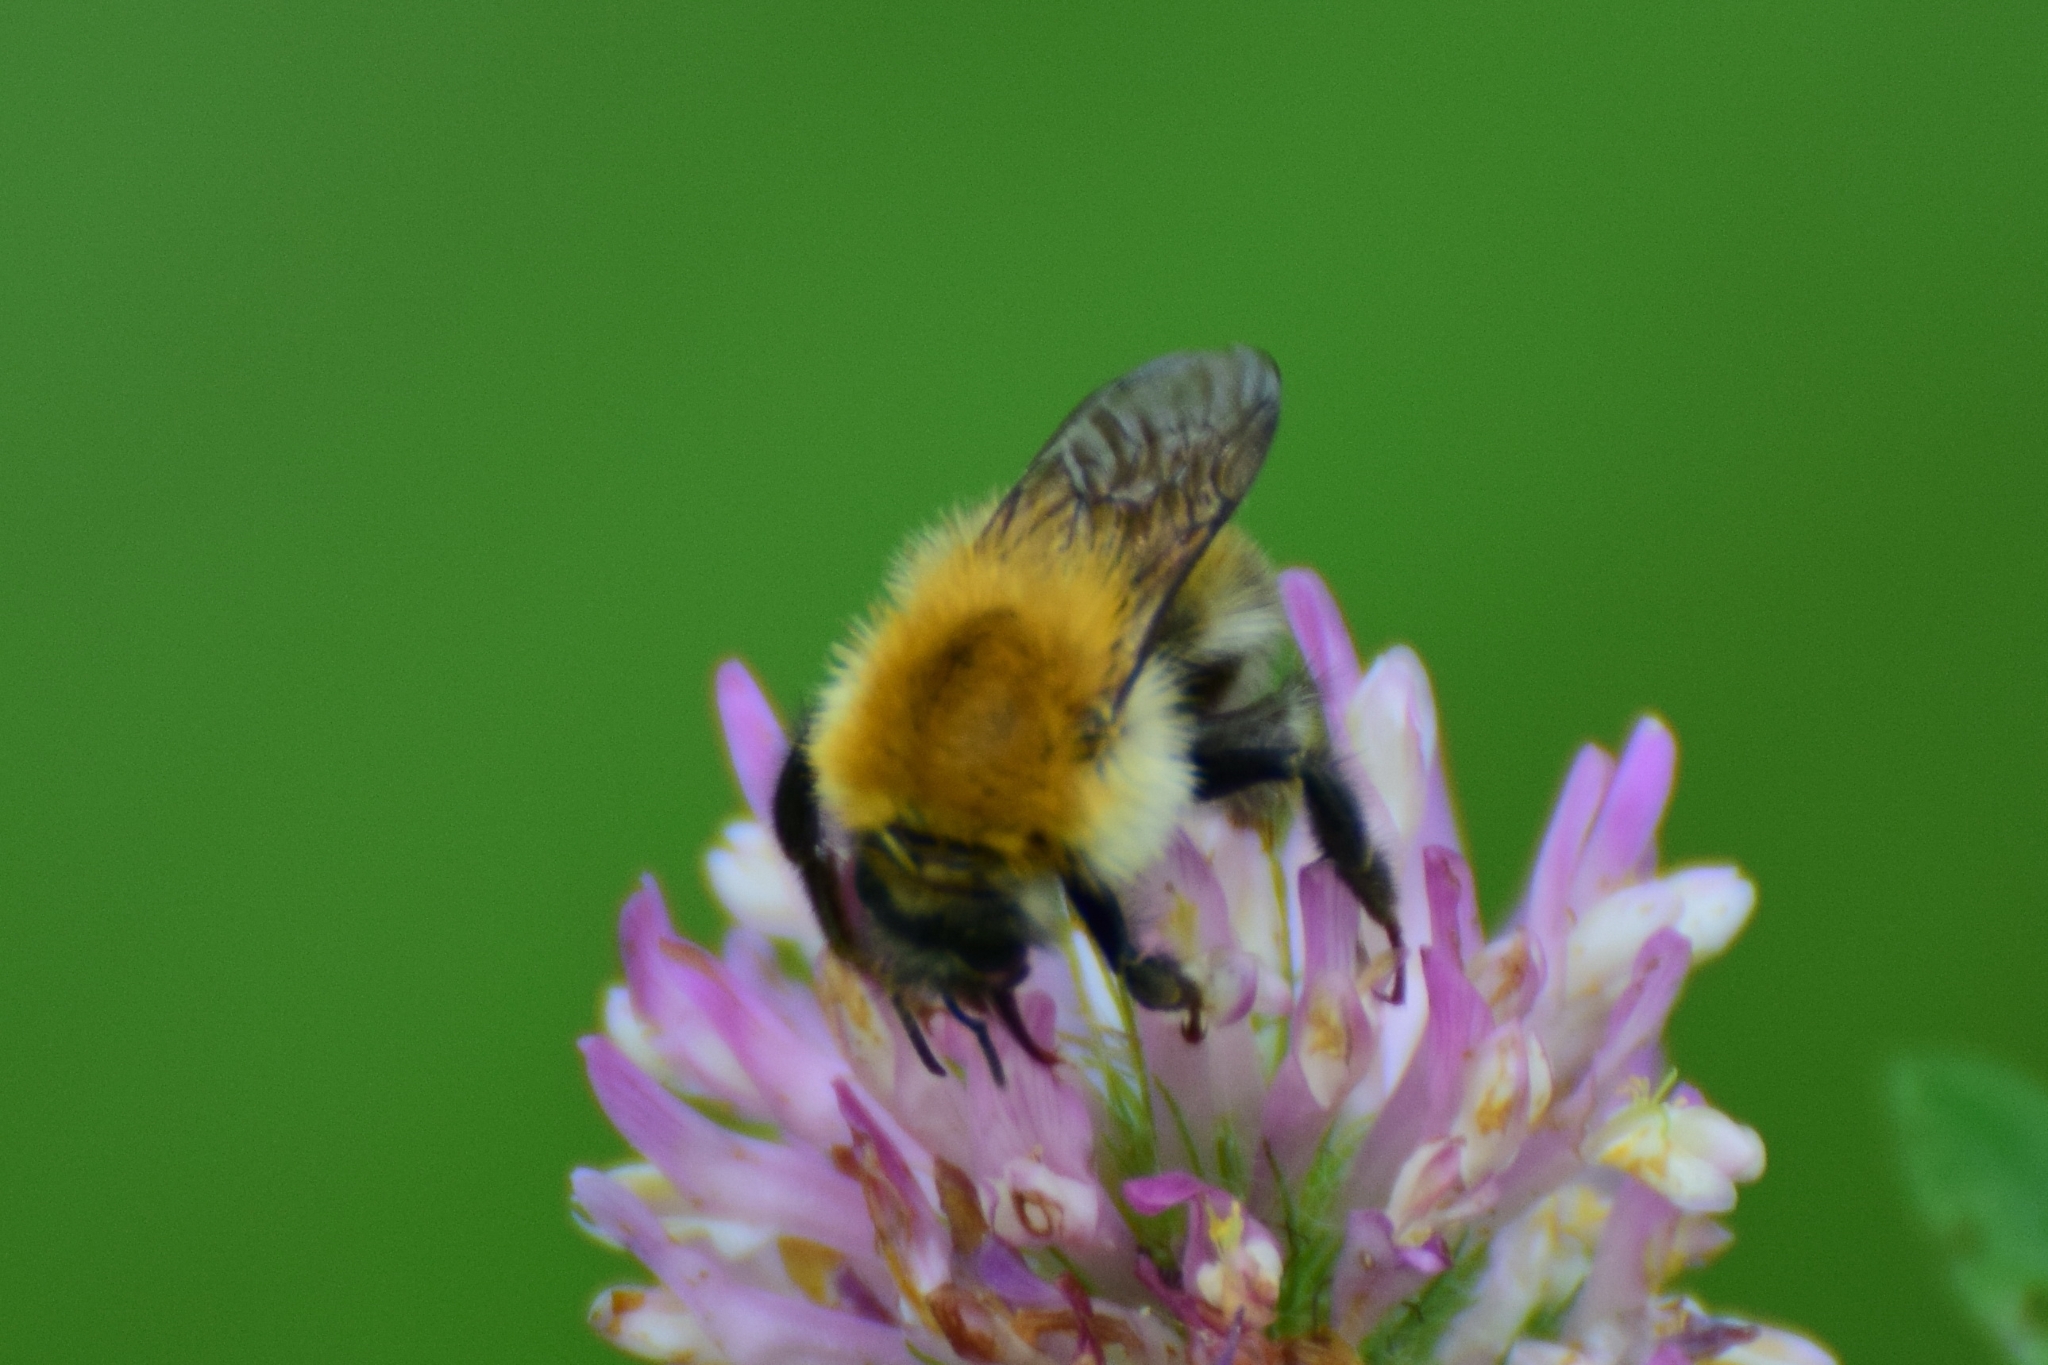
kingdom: Animalia
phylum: Arthropoda
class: Insecta
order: Hymenoptera
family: Apidae
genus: Bombus
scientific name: Bombus schrencki
